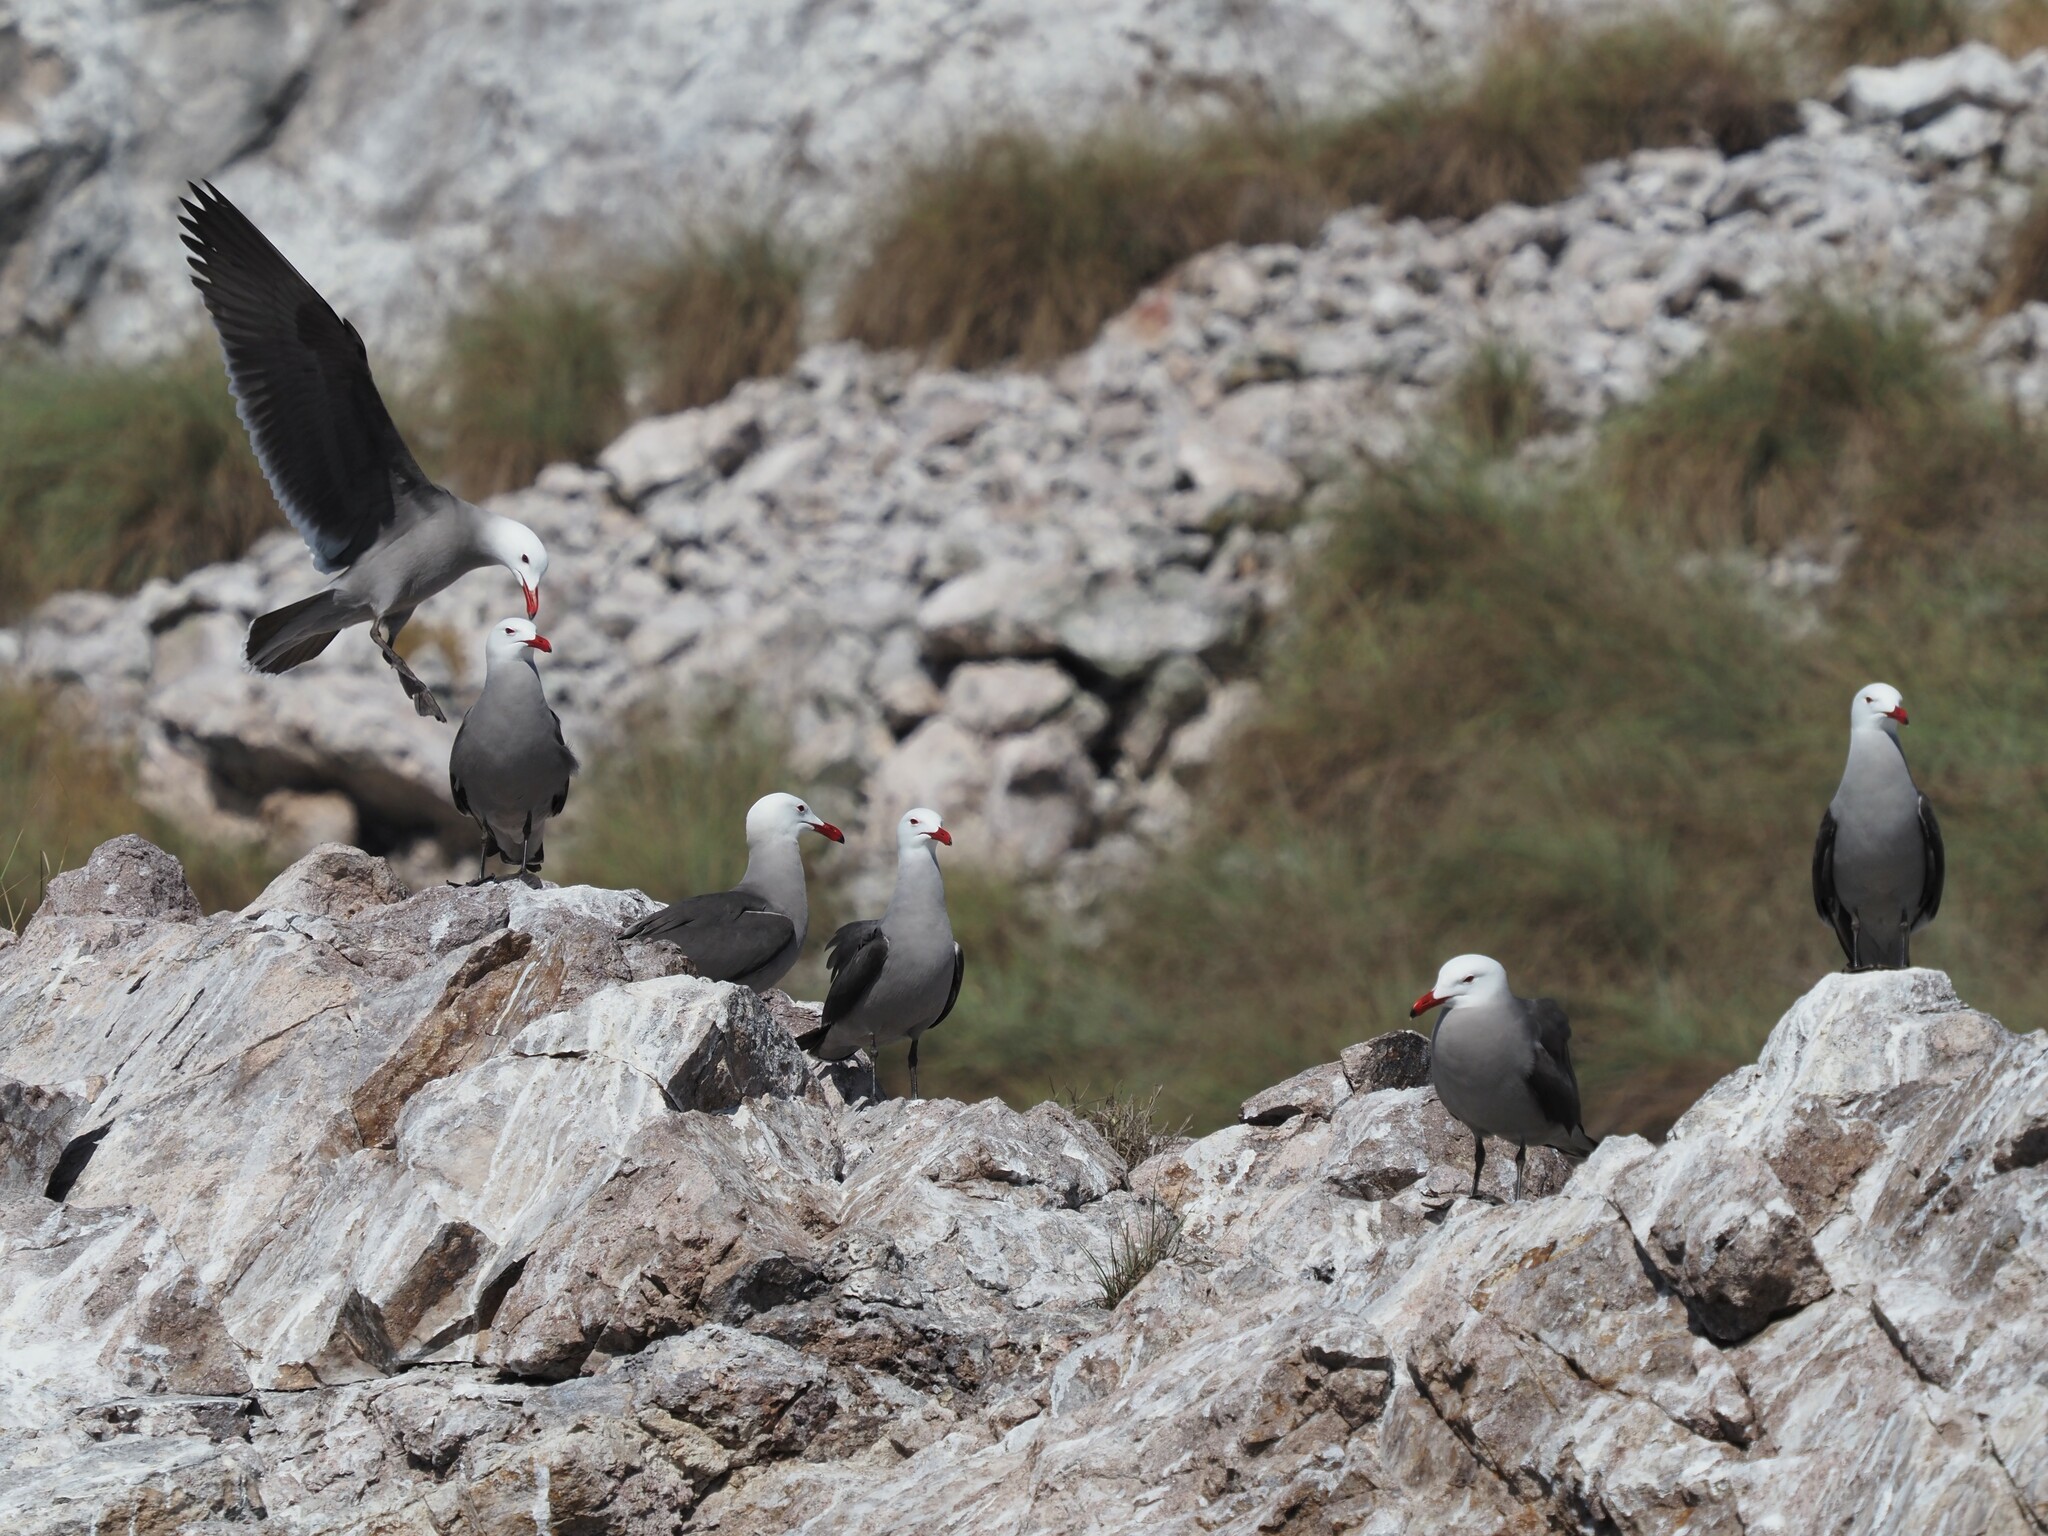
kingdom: Animalia
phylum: Chordata
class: Aves
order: Charadriiformes
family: Laridae
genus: Larus
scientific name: Larus heermanni
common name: Heermann's gull
